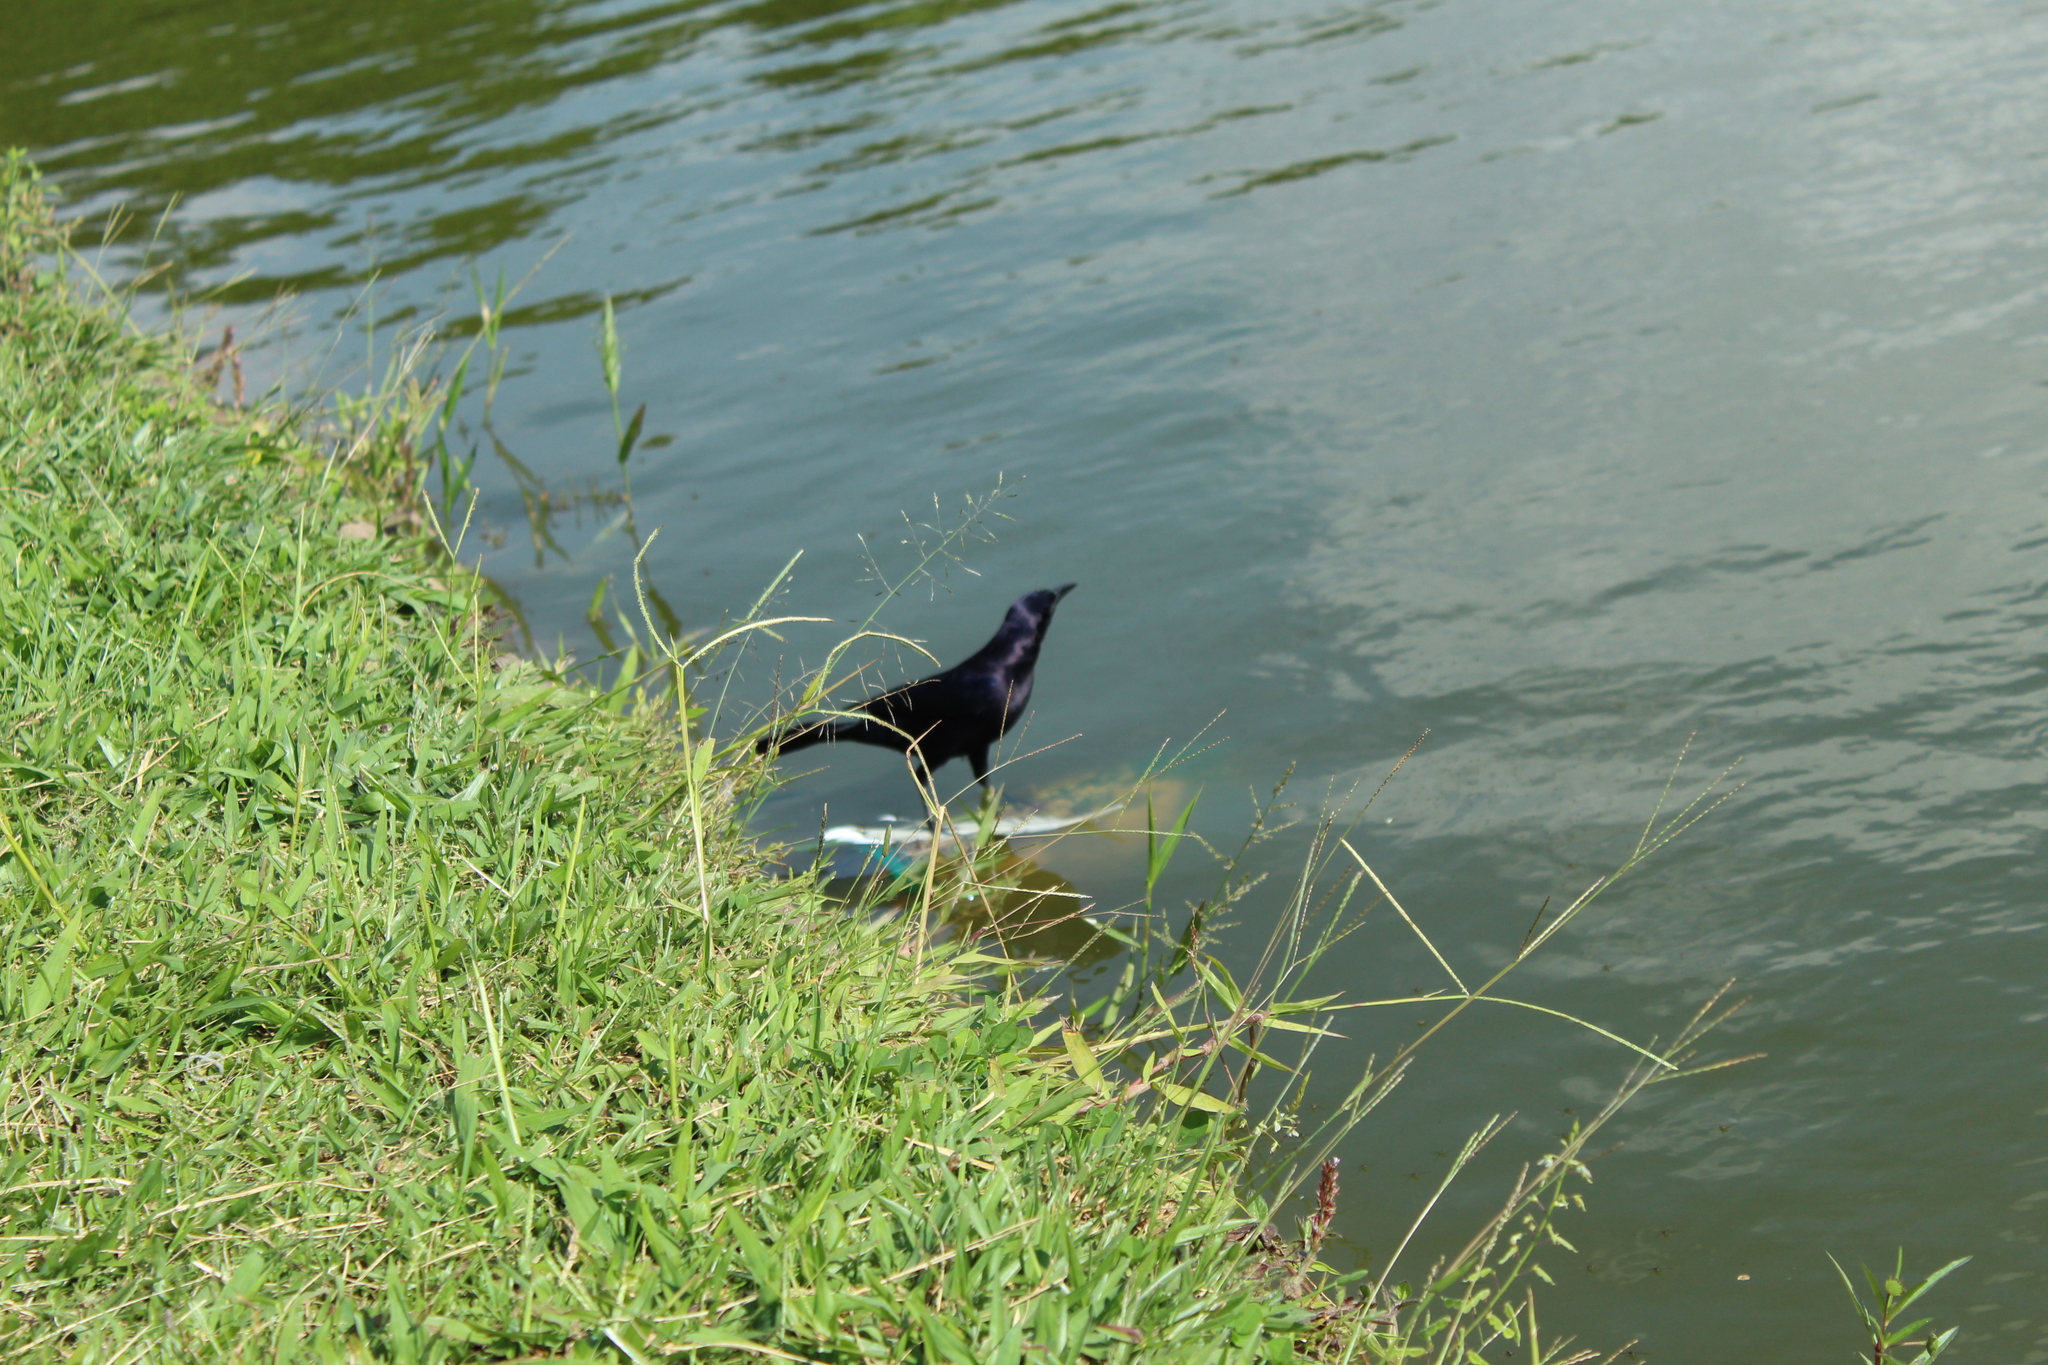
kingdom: Animalia
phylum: Chordata
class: Aves
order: Passeriformes
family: Icteridae
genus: Quiscalus
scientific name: Quiscalus mexicanus
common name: Great-tailed grackle
